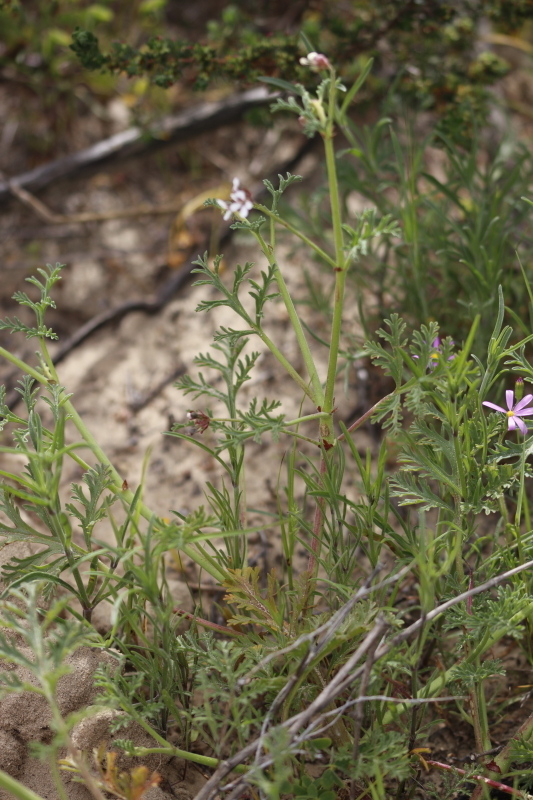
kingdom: Plantae
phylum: Tracheophyta
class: Magnoliopsida
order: Geraniales
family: Geraniaceae
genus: Pelargonium
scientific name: Pelargonium senecioides
